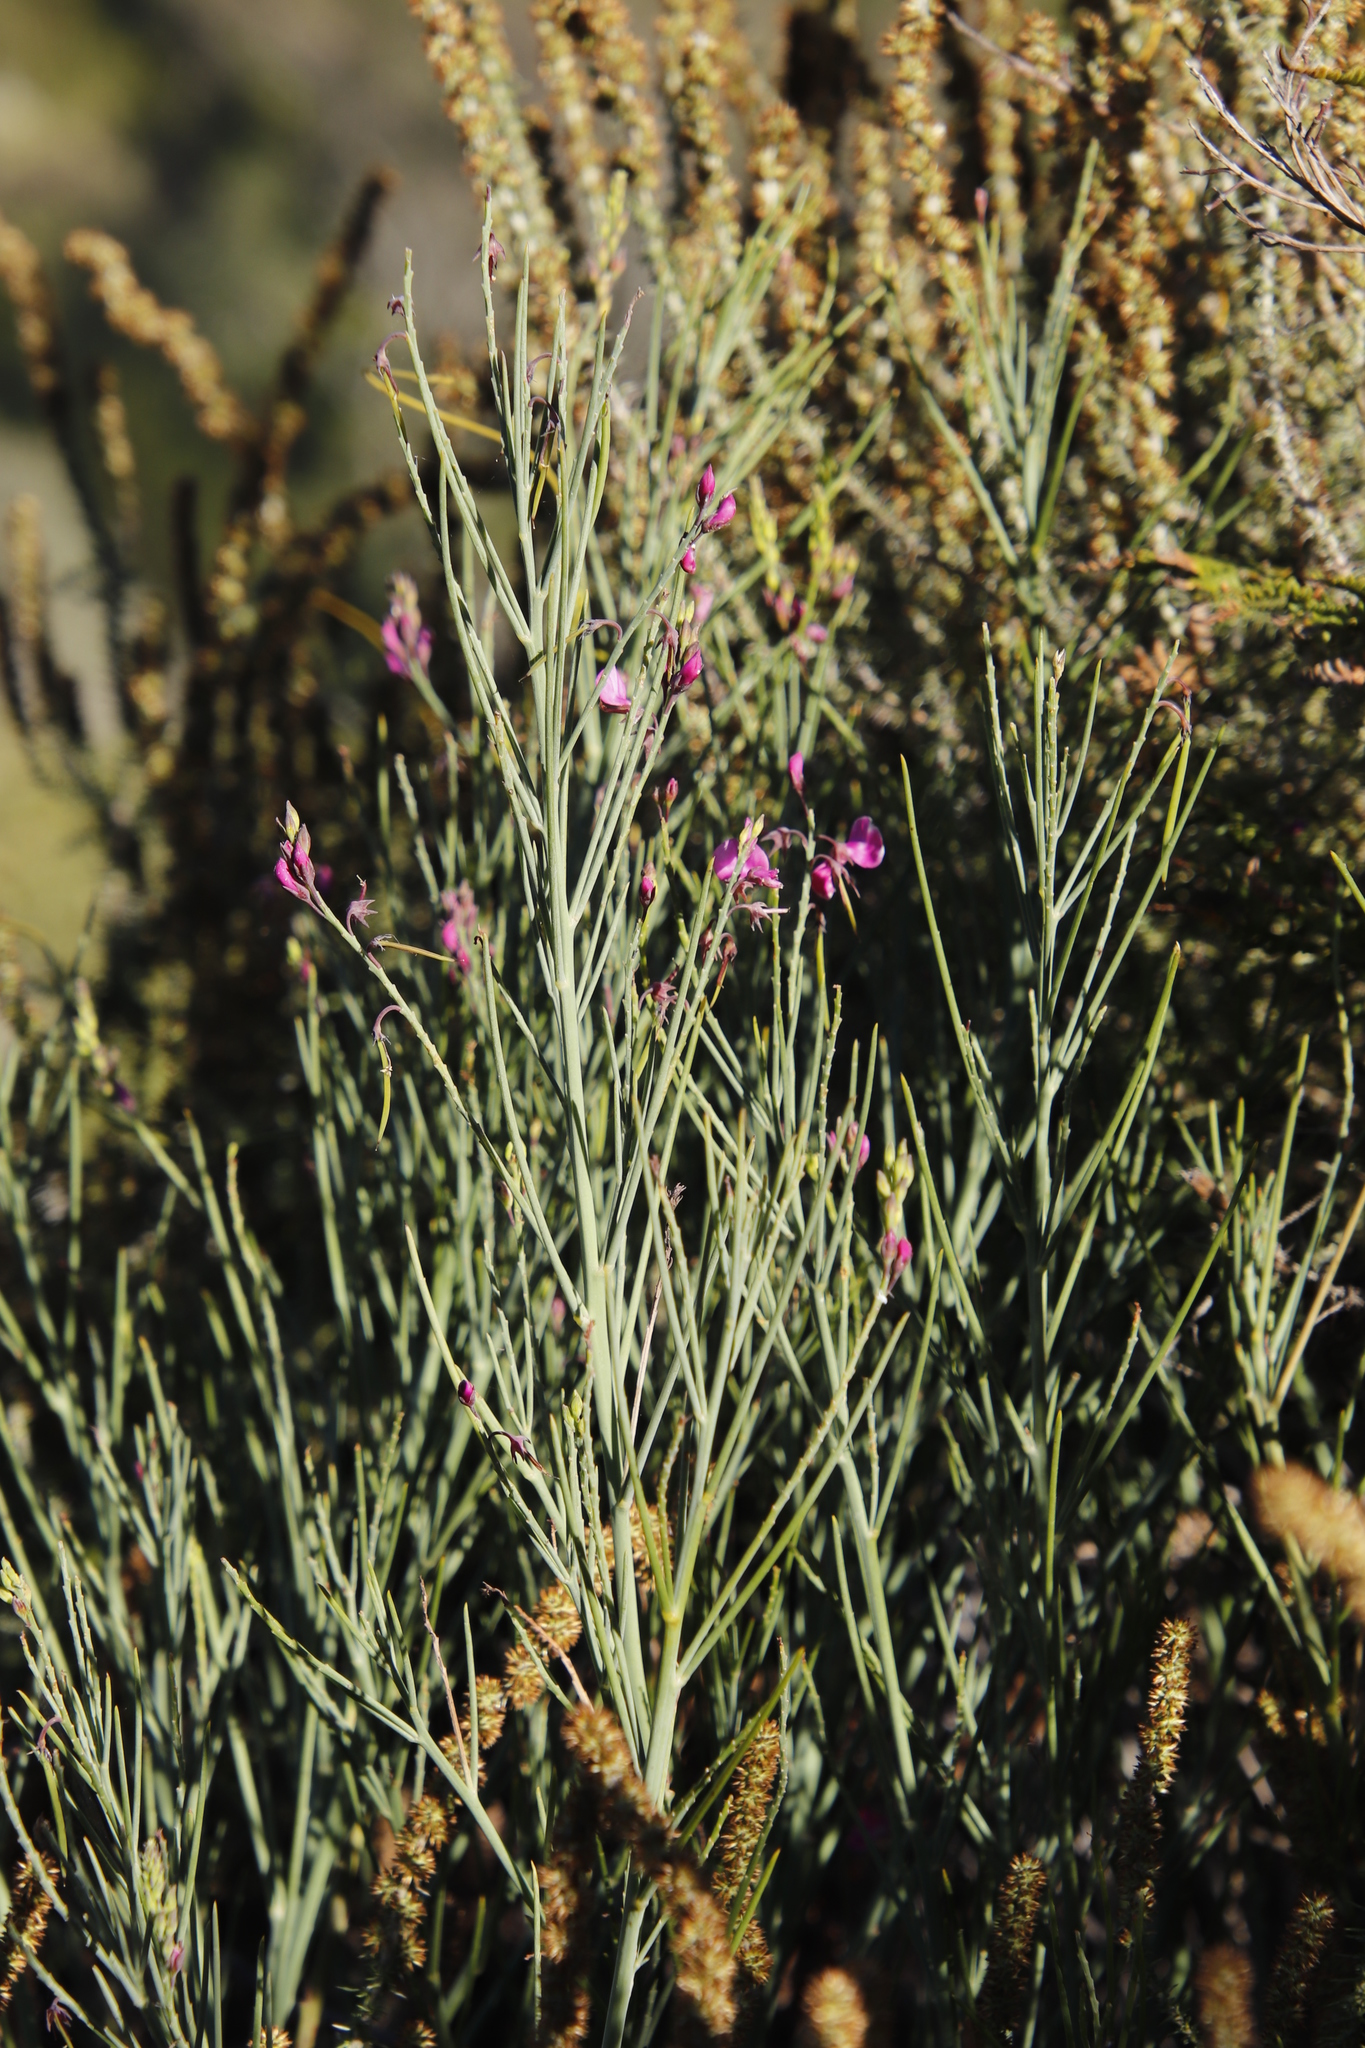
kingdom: Plantae
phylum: Tracheophyta
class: Magnoliopsida
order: Fabales
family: Fabaceae
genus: Indigofera
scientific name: Indigofera filifolia
